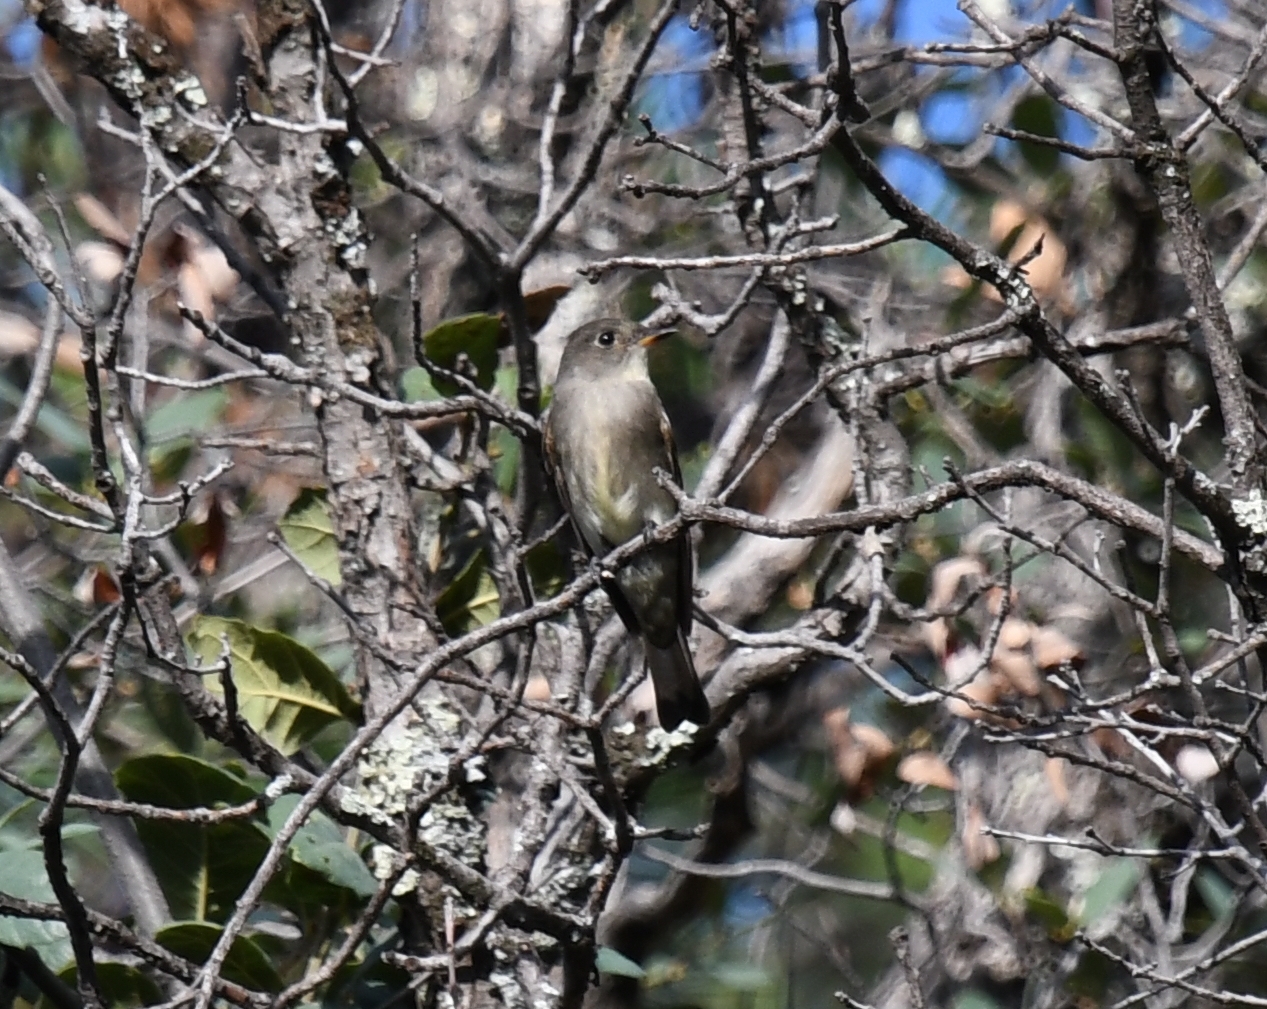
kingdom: Animalia
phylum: Chordata
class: Aves
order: Passeriformes
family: Tyrannidae
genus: Contopus
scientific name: Contopus sordidulus
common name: Western wood-pewee
